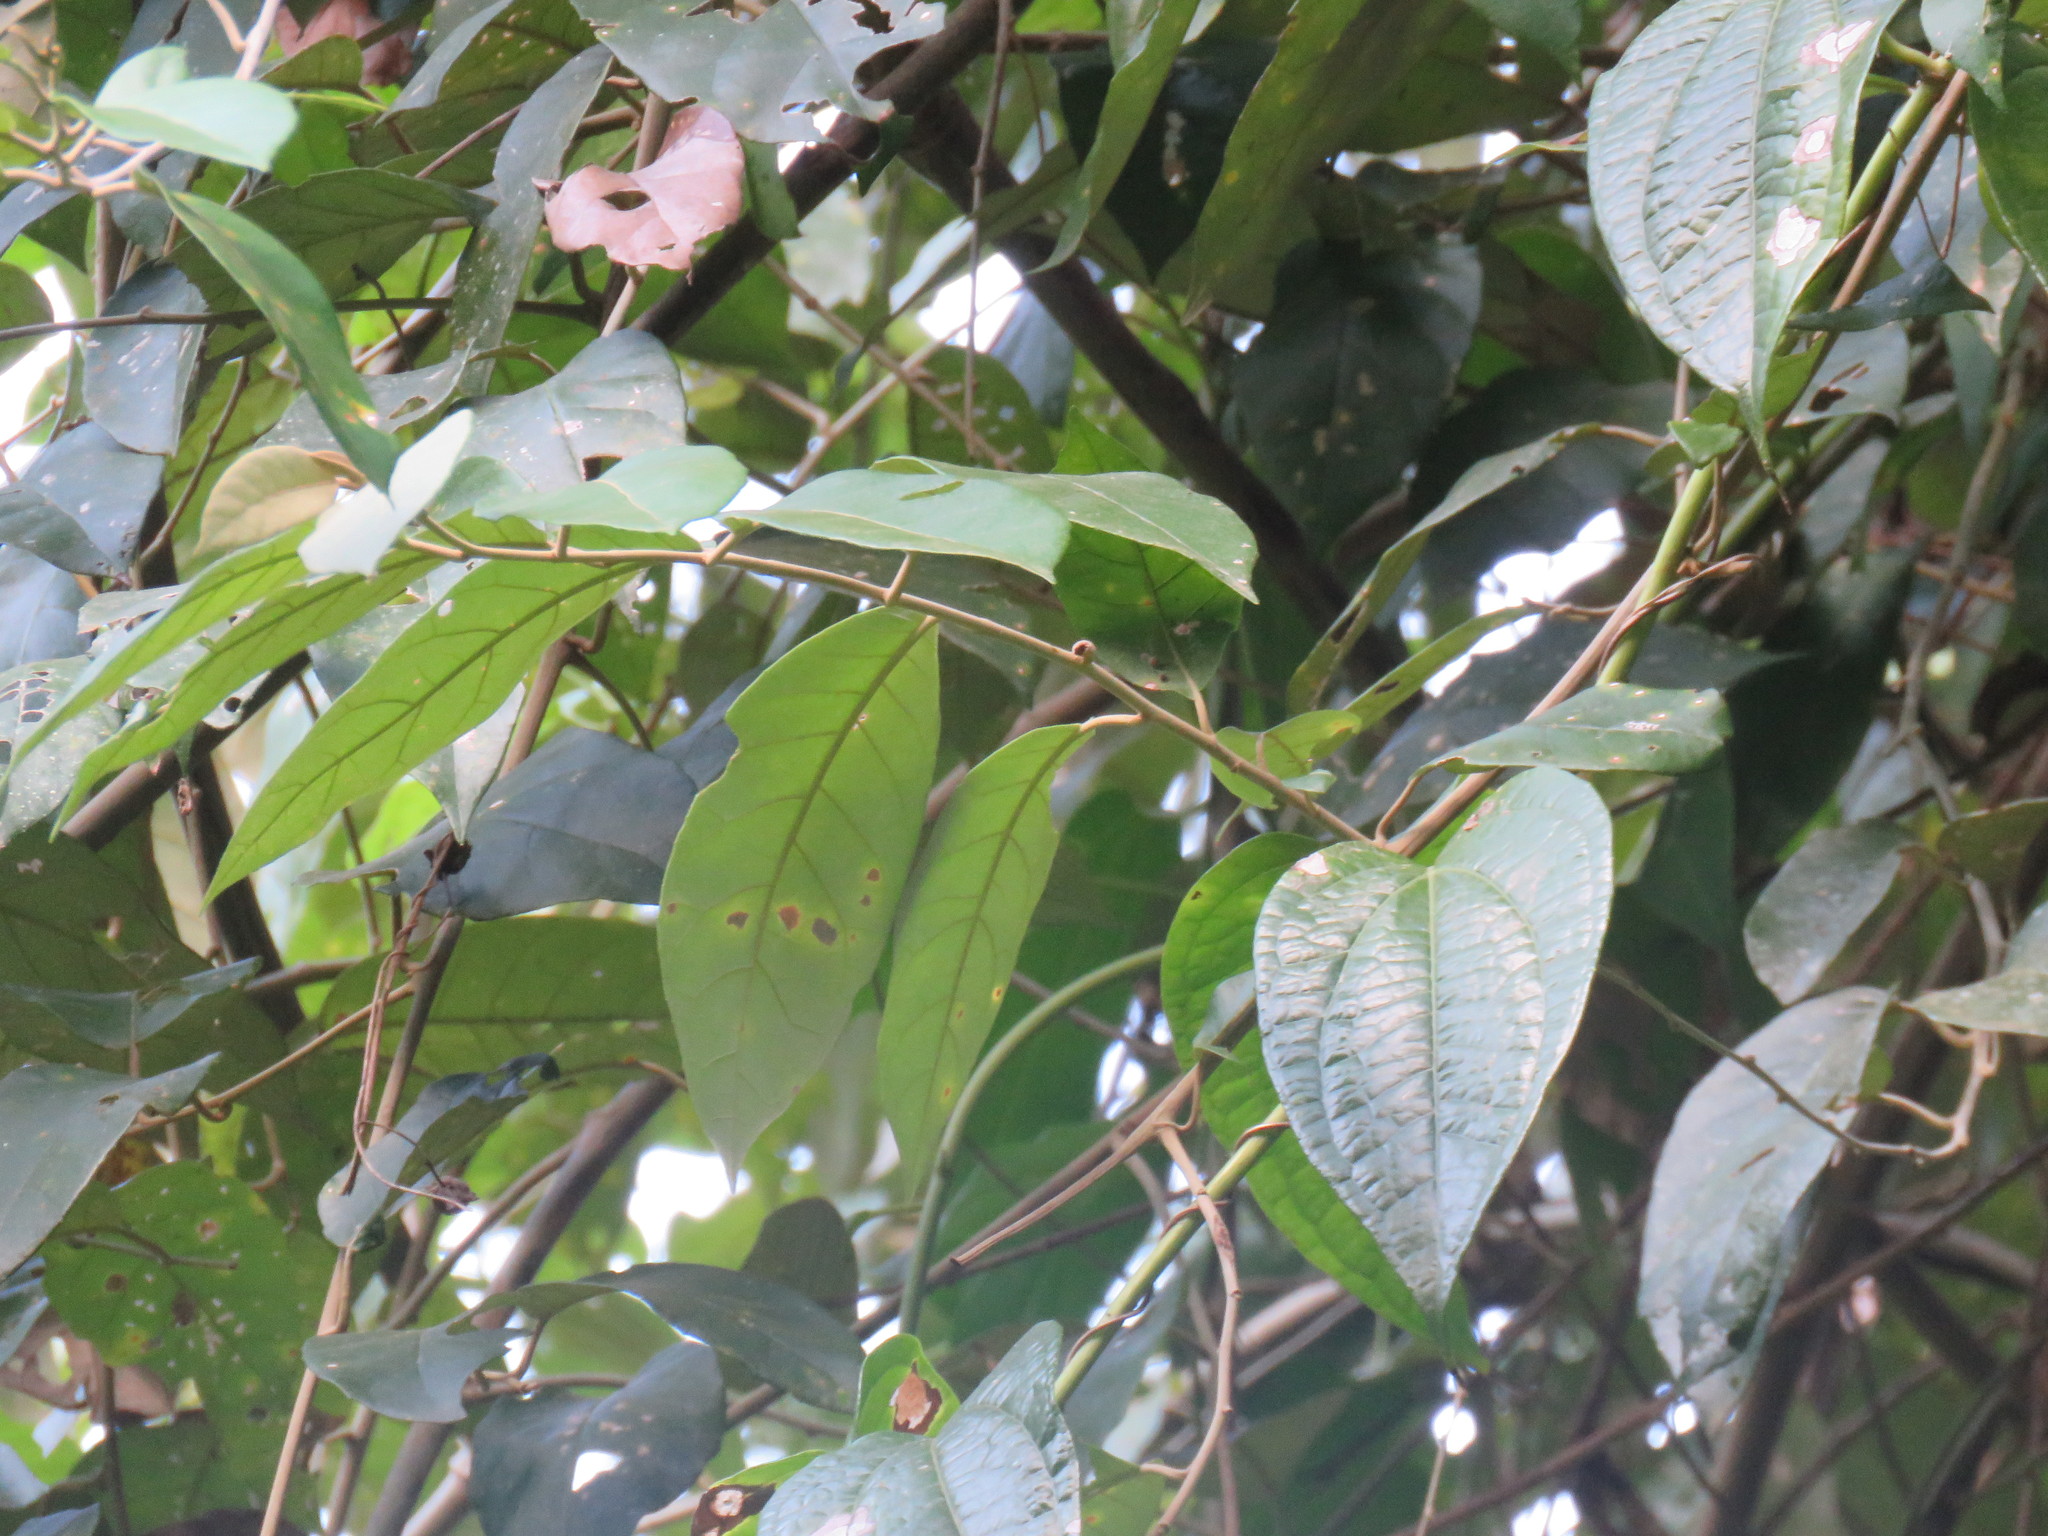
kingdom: Plantae
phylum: Tracheophyta
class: Magnoliopsida
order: Solanales
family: Convolvulaceae
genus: Itzaea
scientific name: Itzaea sericea
